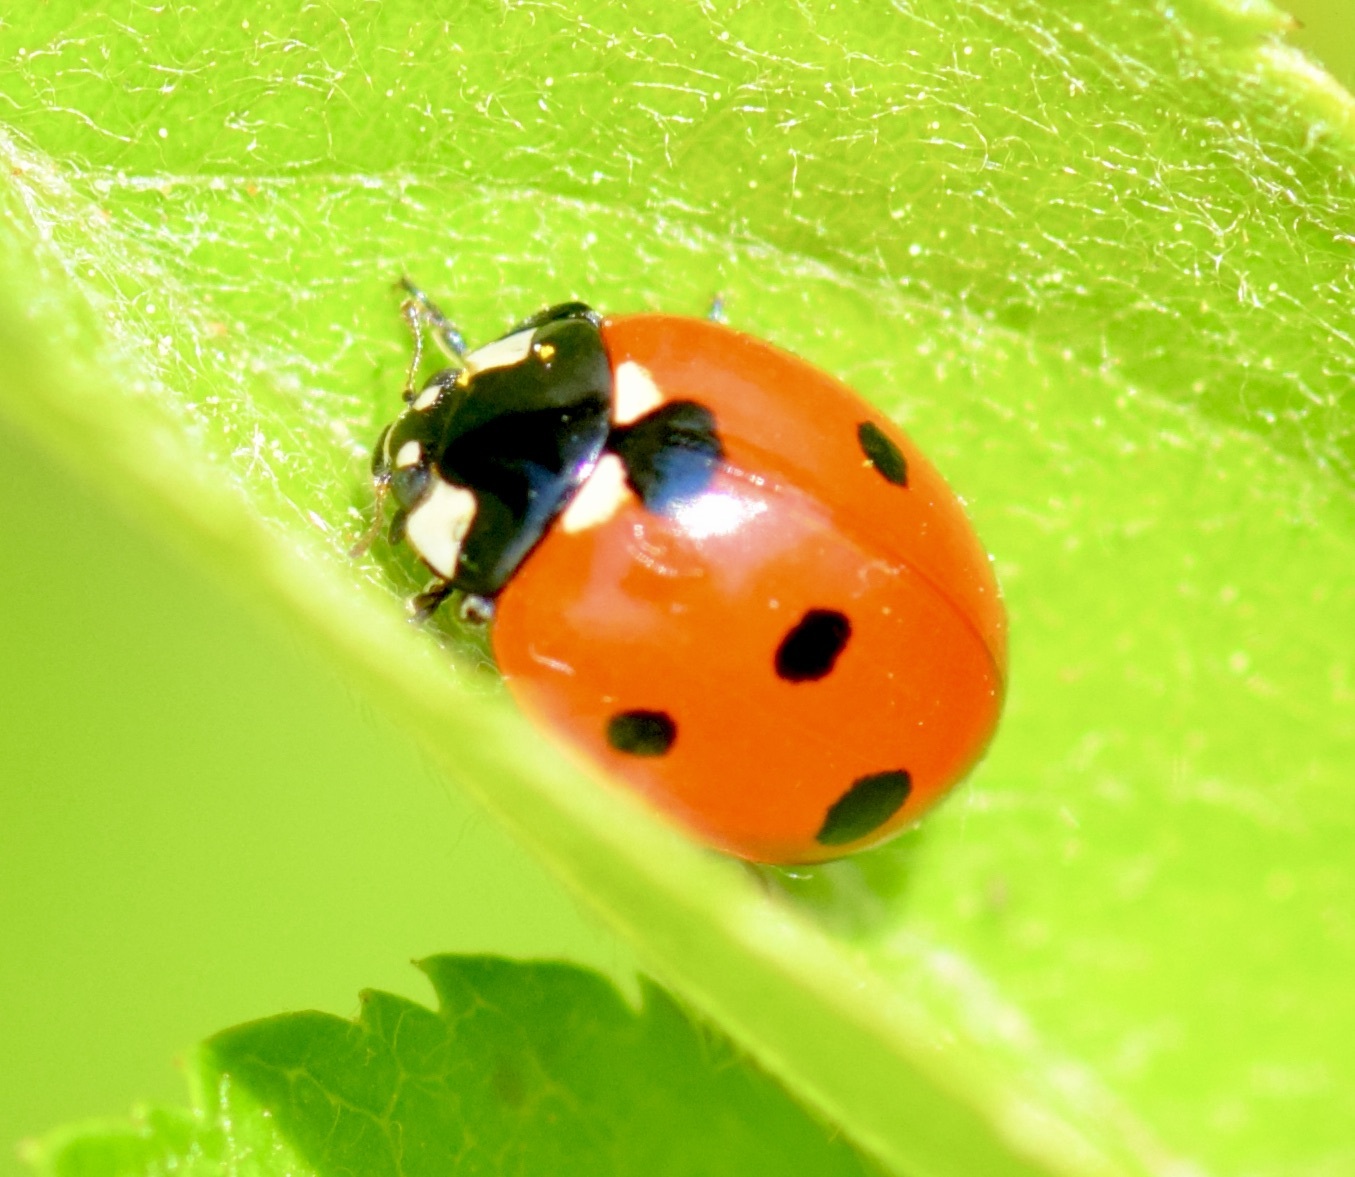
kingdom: Animalia
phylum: Arthropoda
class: Insecta
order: Coleoptera
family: Coccinellidae
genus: Coccinella
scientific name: Coccinella septempunctata
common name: Sevenspotted lady beetle
